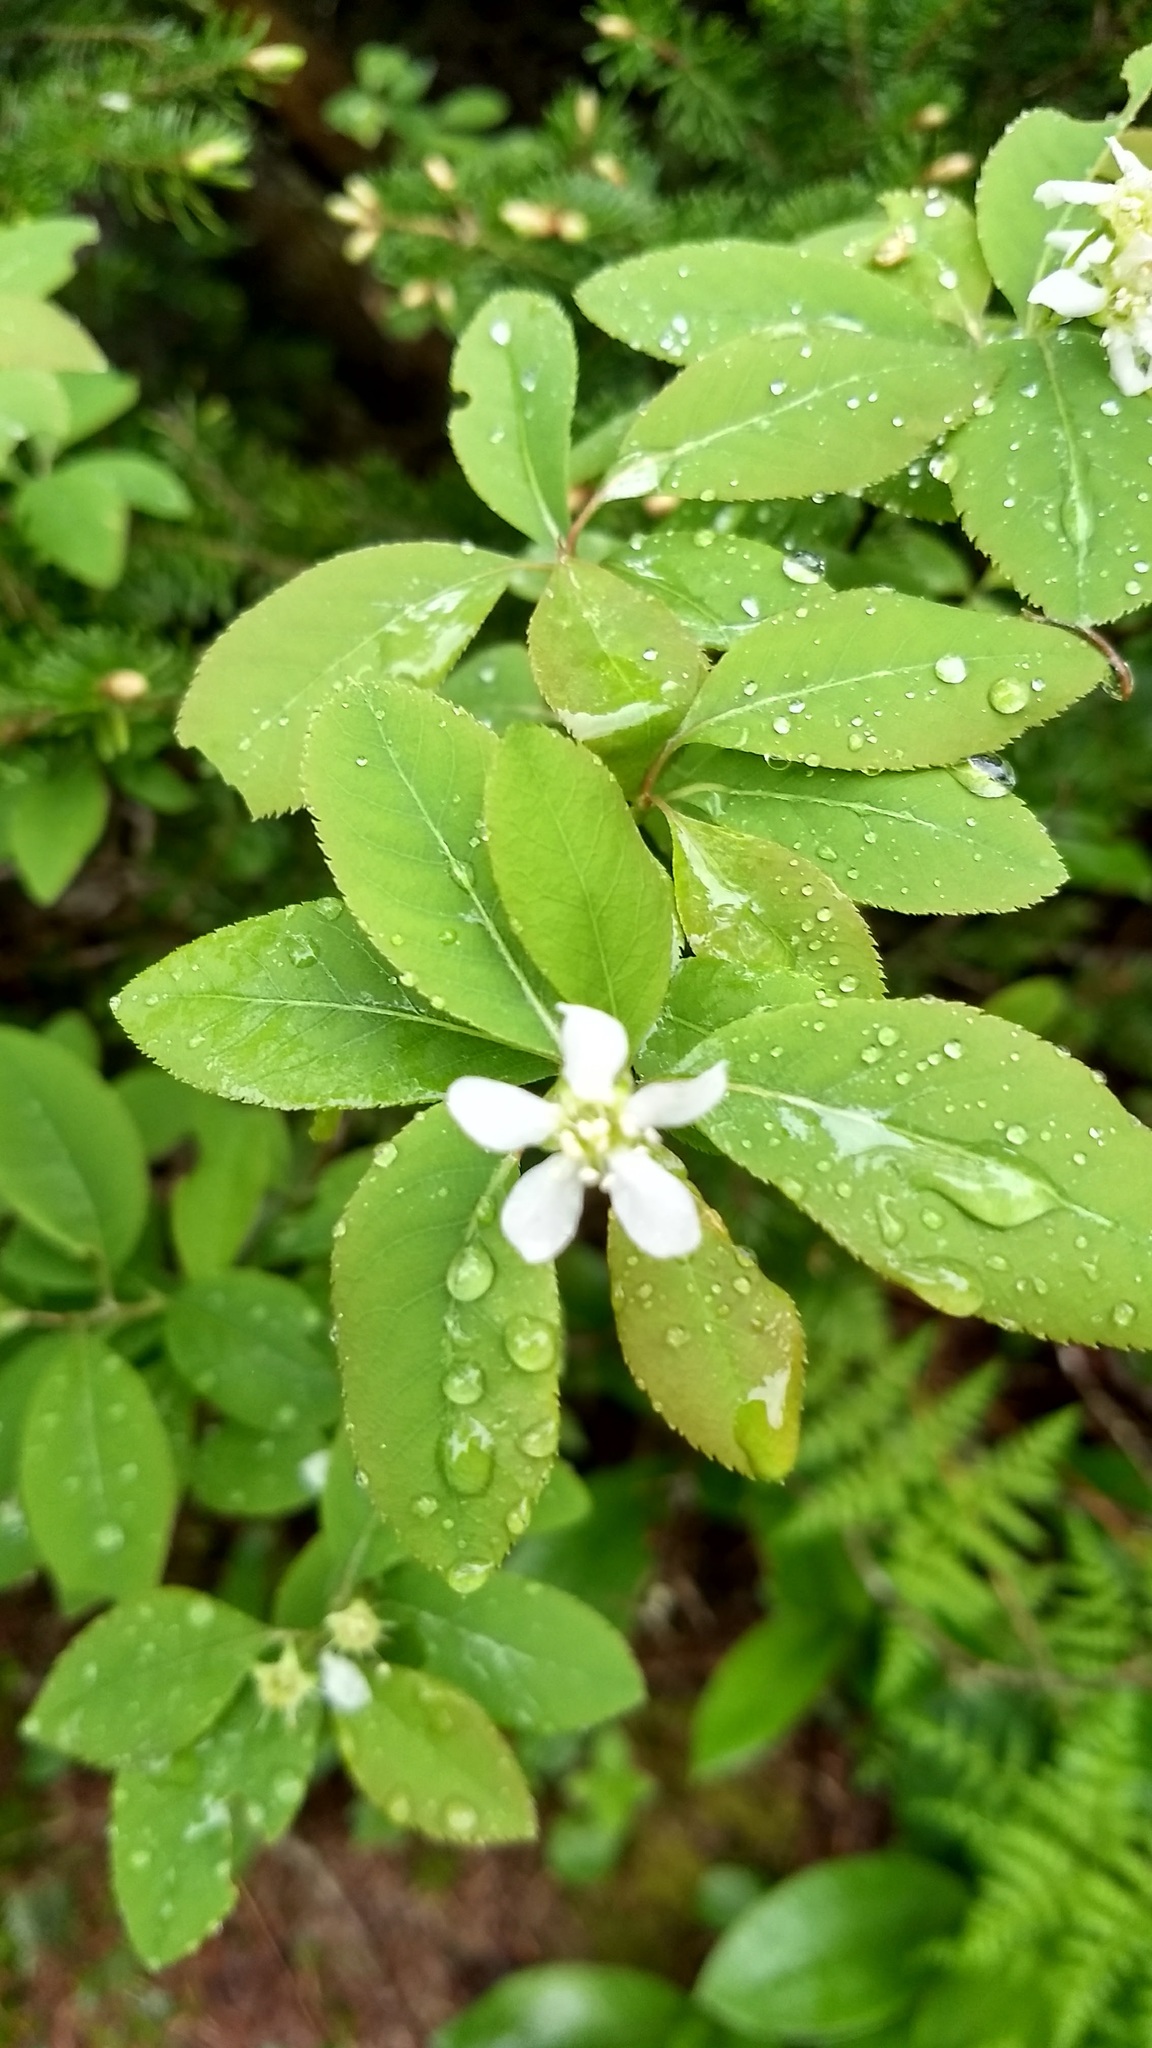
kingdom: Plantae
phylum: Tracheophyta
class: Magnoliopsida
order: Rosales
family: Rosaceae
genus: Amelanchier
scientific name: Amelanchier bartramiana
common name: Mountain serviceberry
